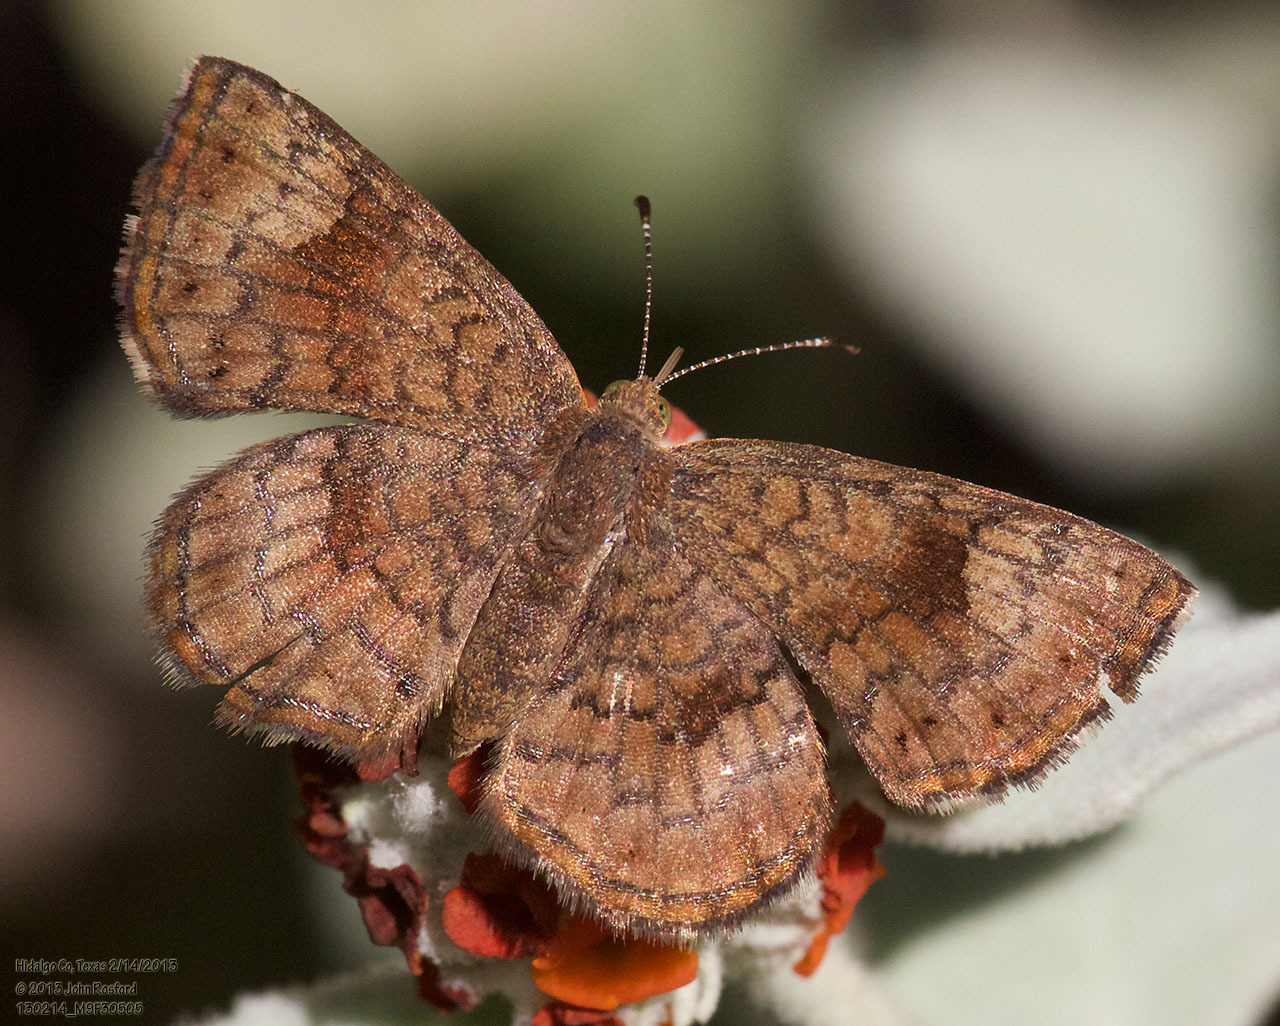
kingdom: Animalia
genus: Calephelis
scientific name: Calephelis nemesis
